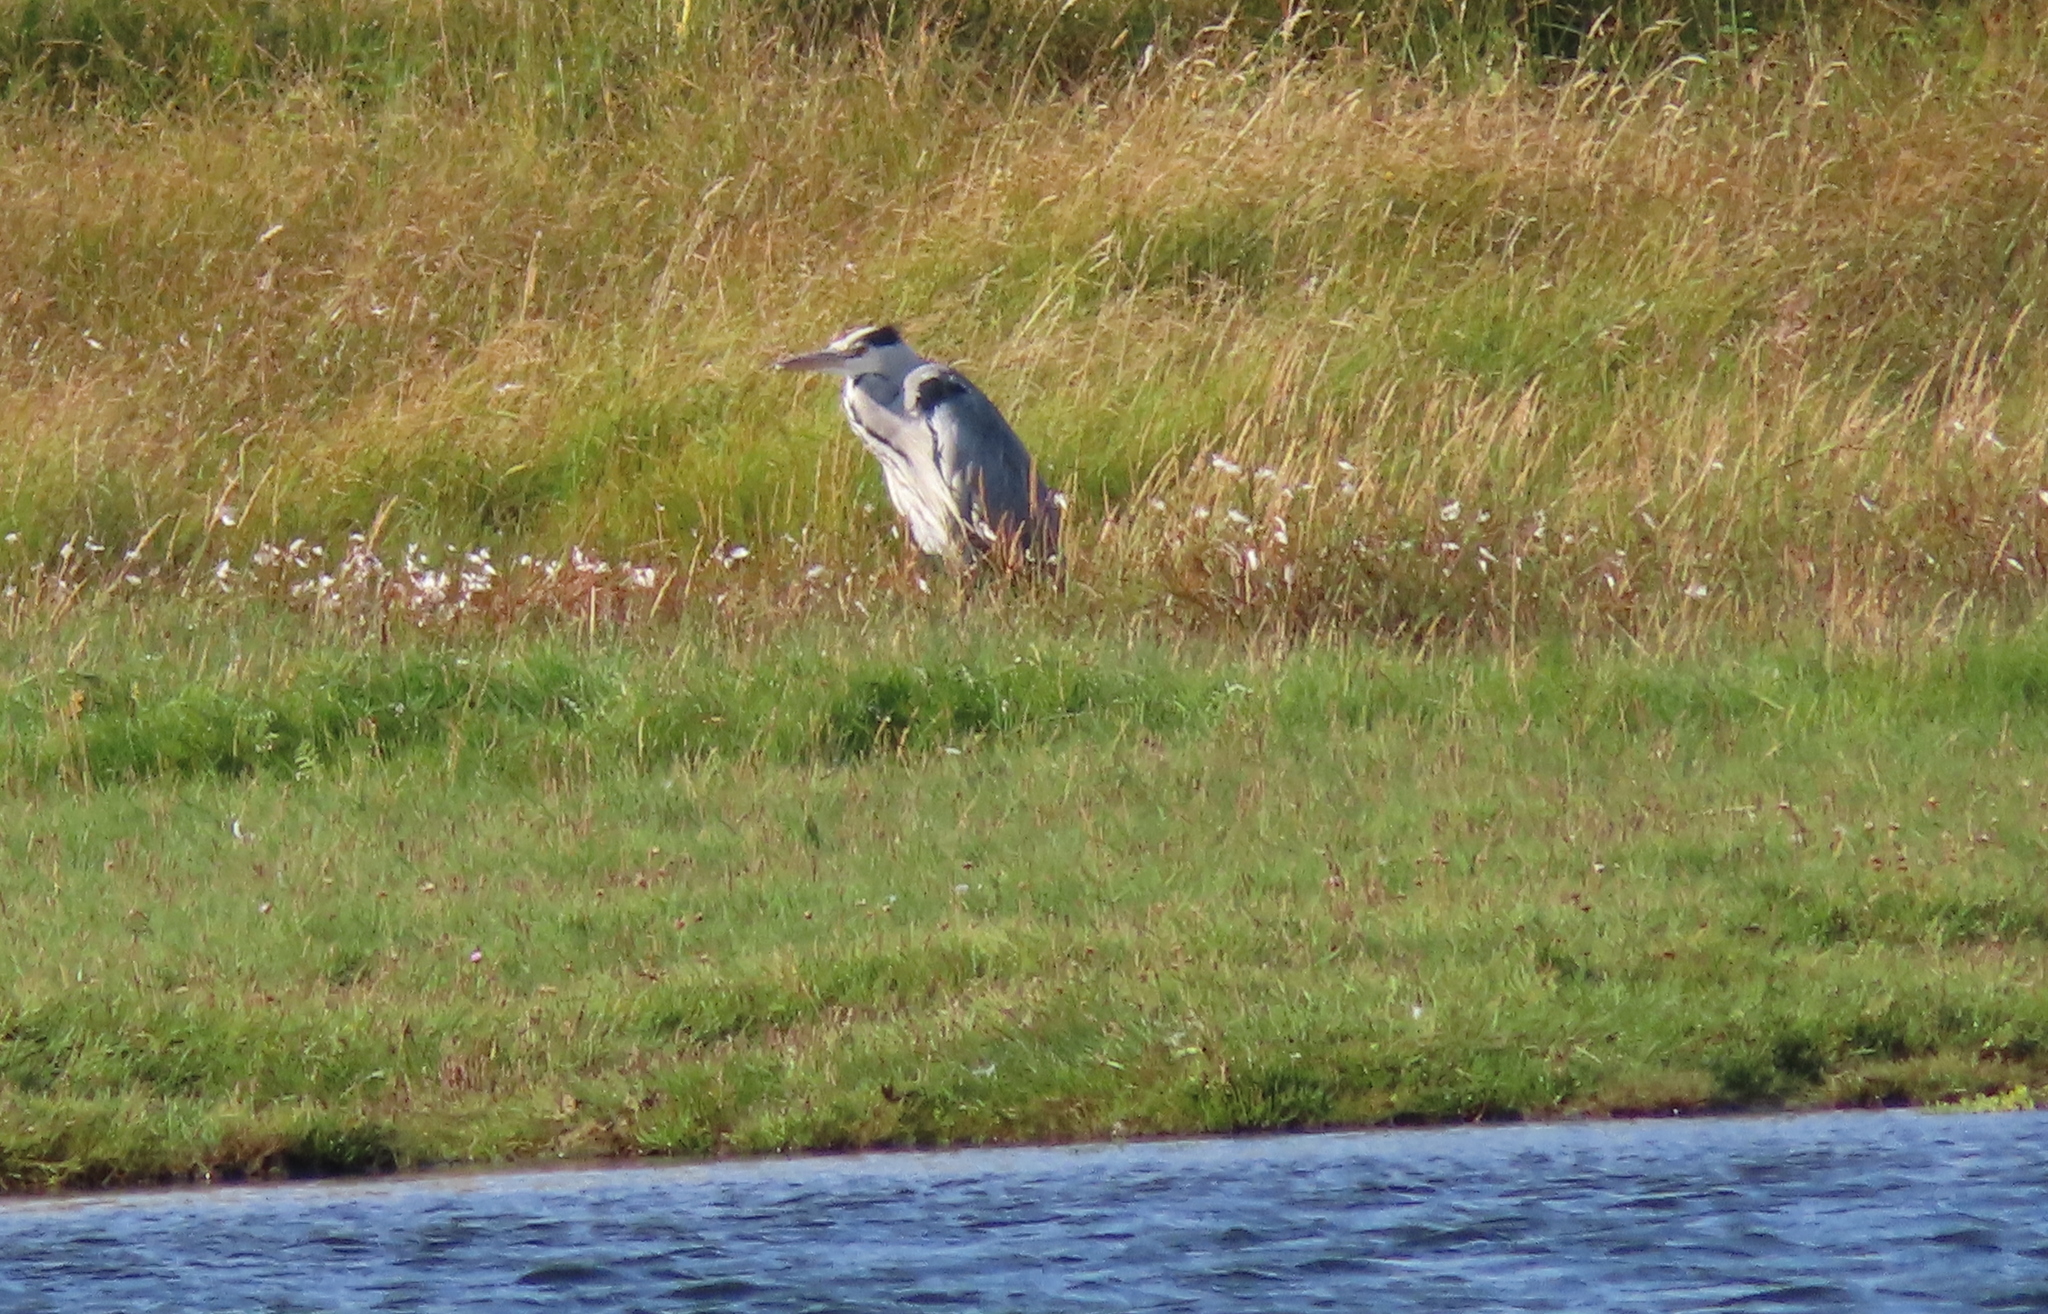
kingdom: Animalia
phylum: Chordata
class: Aves
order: Pelecaniformes
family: Ardeidae
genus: Ardea
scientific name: Ardea cinerea
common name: Grey heron
